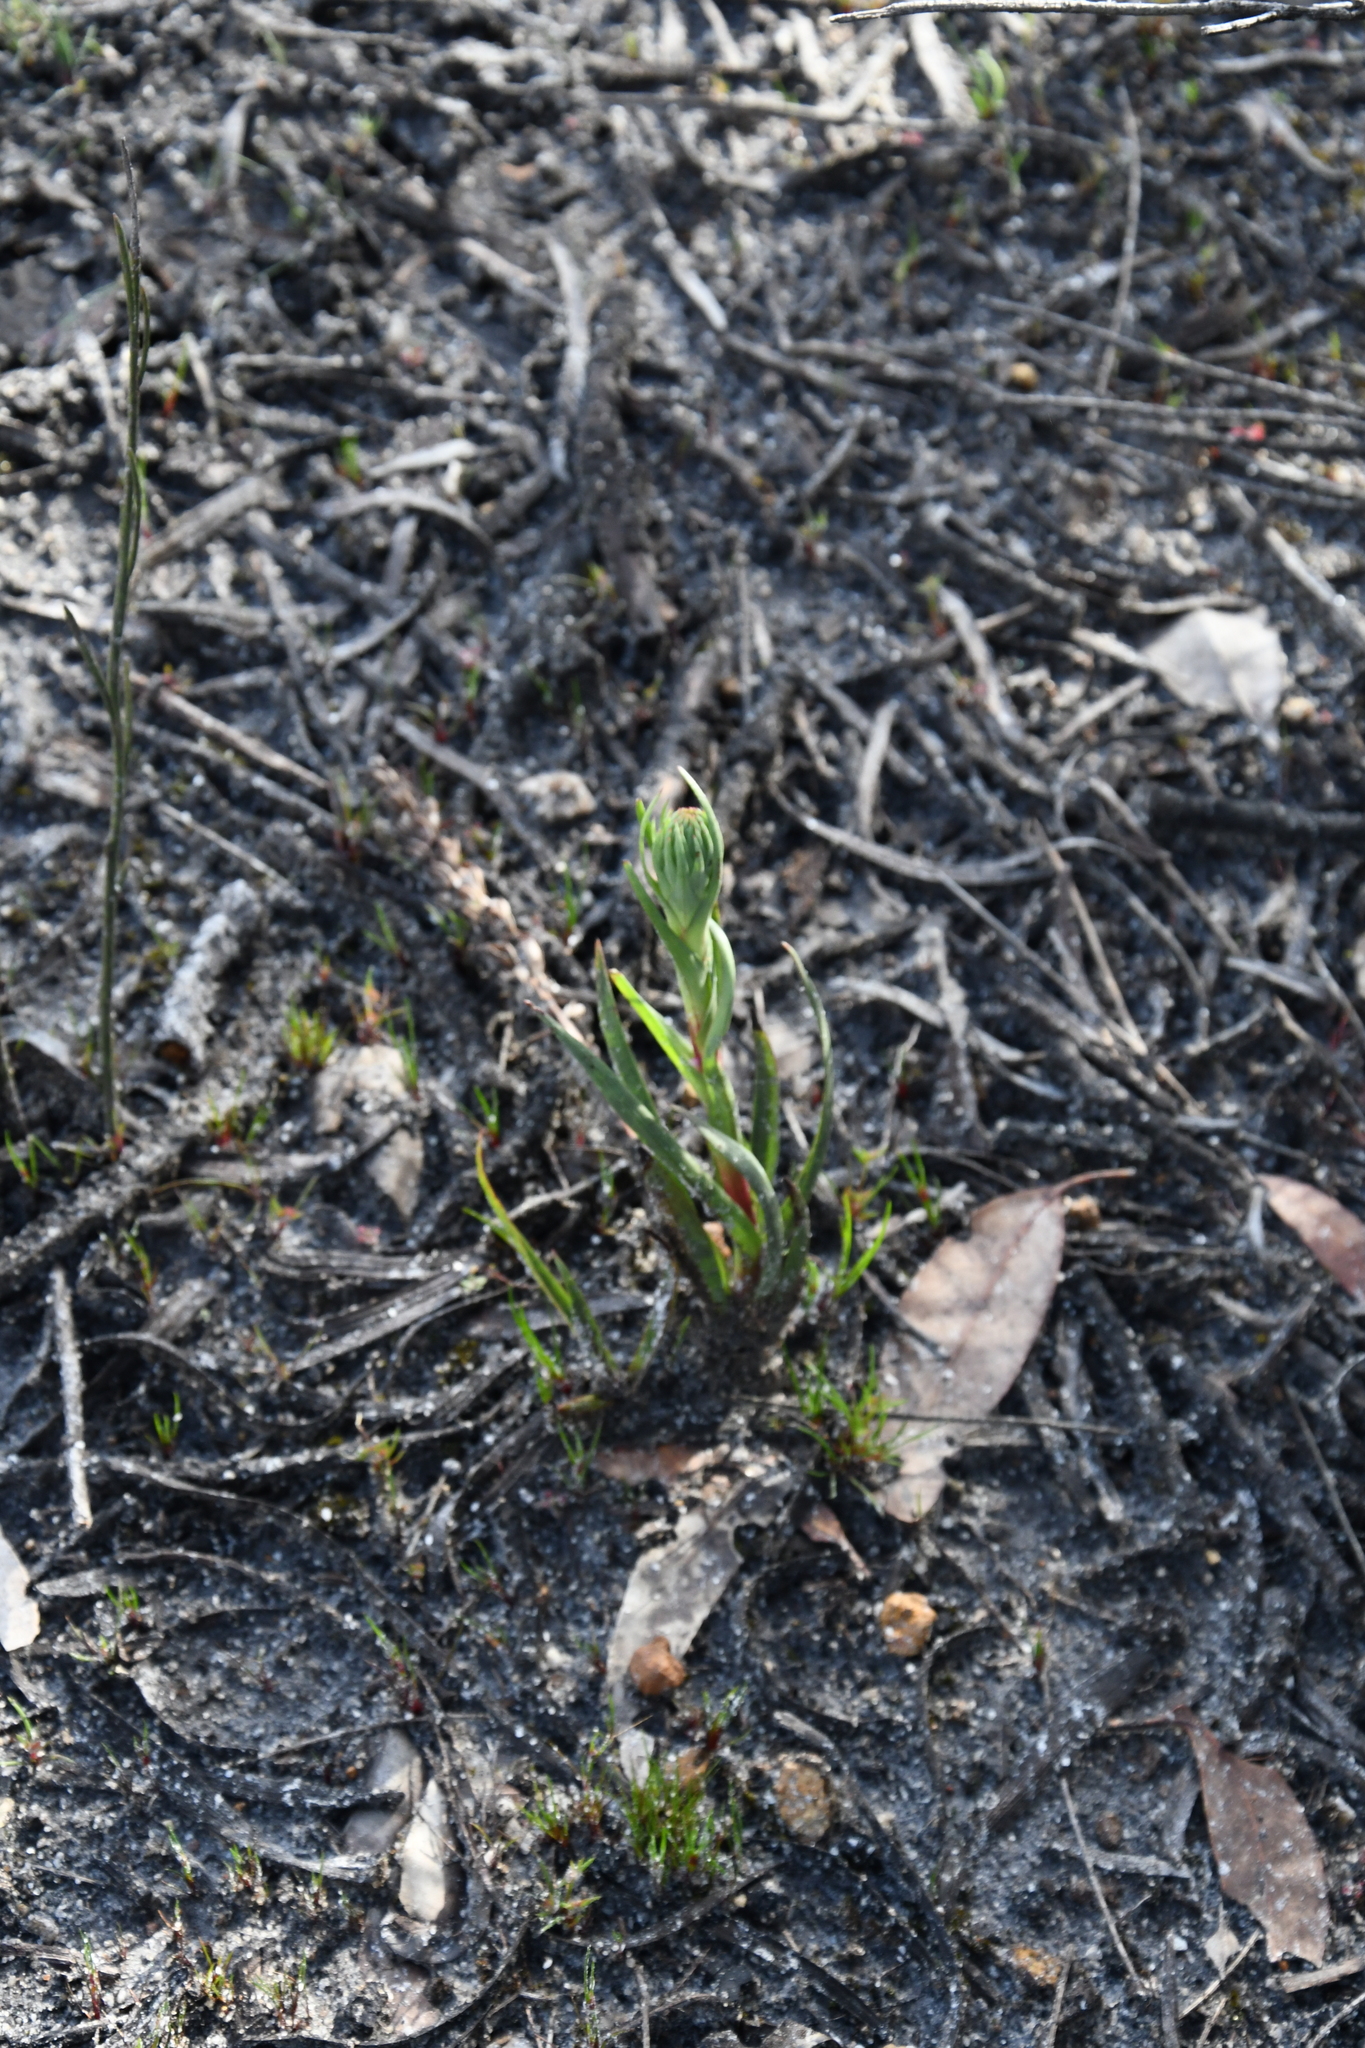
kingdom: Plantae
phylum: Tracheophyta
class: Liliopsida
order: Asparagales
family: Orchidaceae
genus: Disa
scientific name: Disa bracteata
